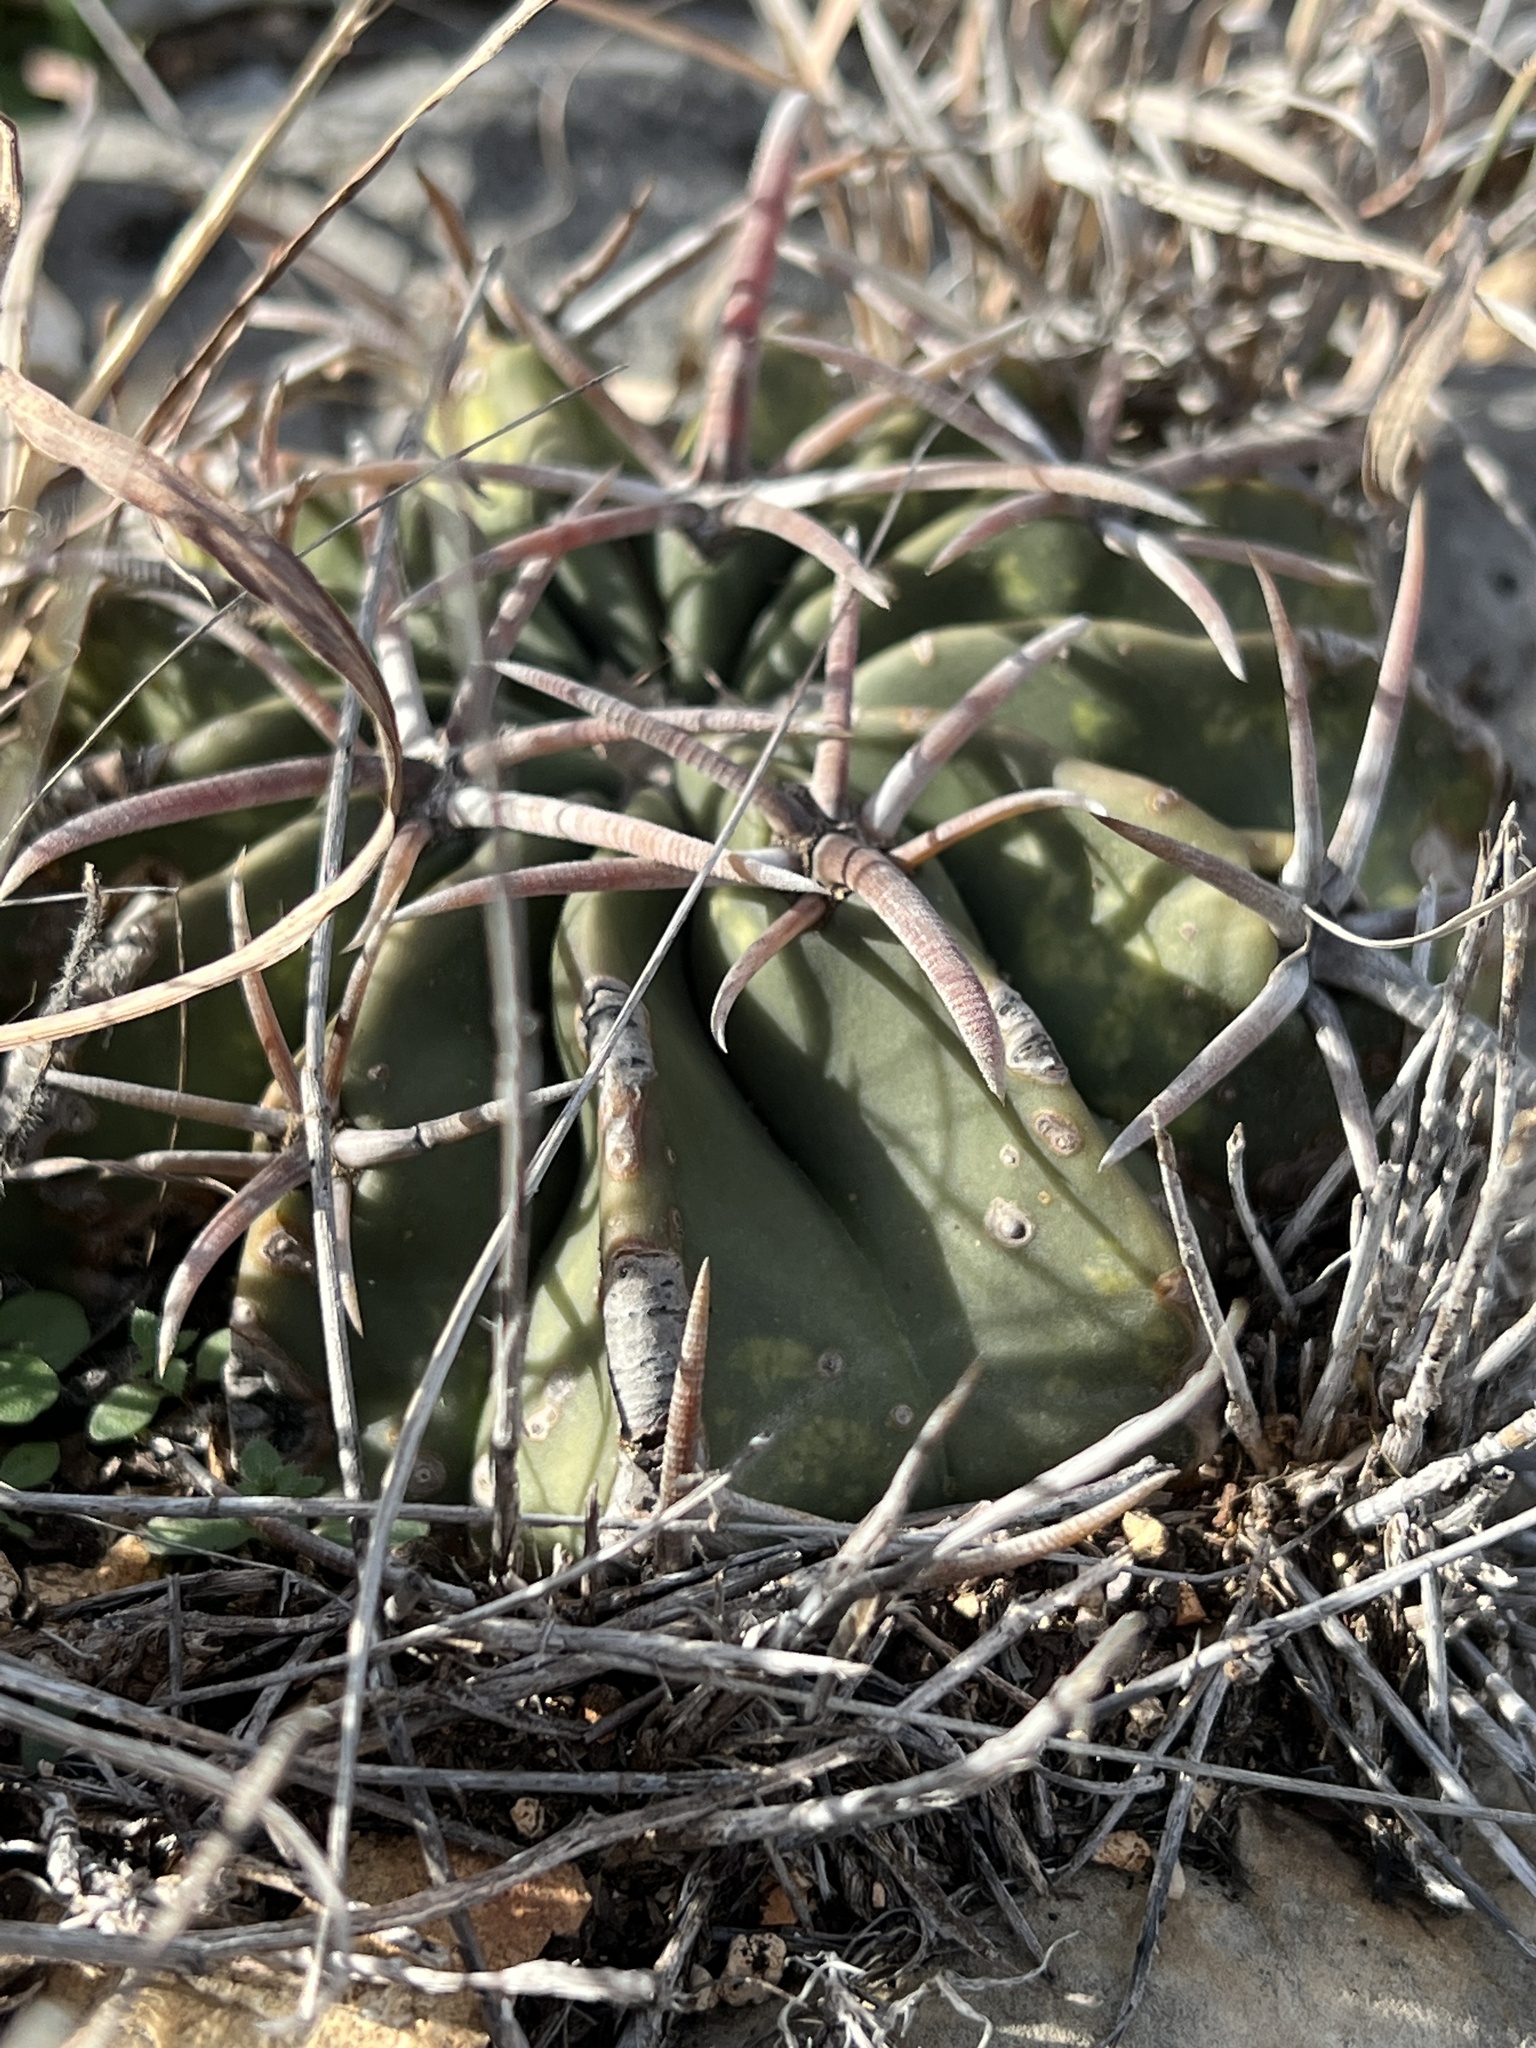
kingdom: Plantae
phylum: Tracheophyta
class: Magnoliopsida
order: Caryophyllales
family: Cactaceae
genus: Echinocactus
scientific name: Echinocactus texensis
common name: Devil's pincushion
